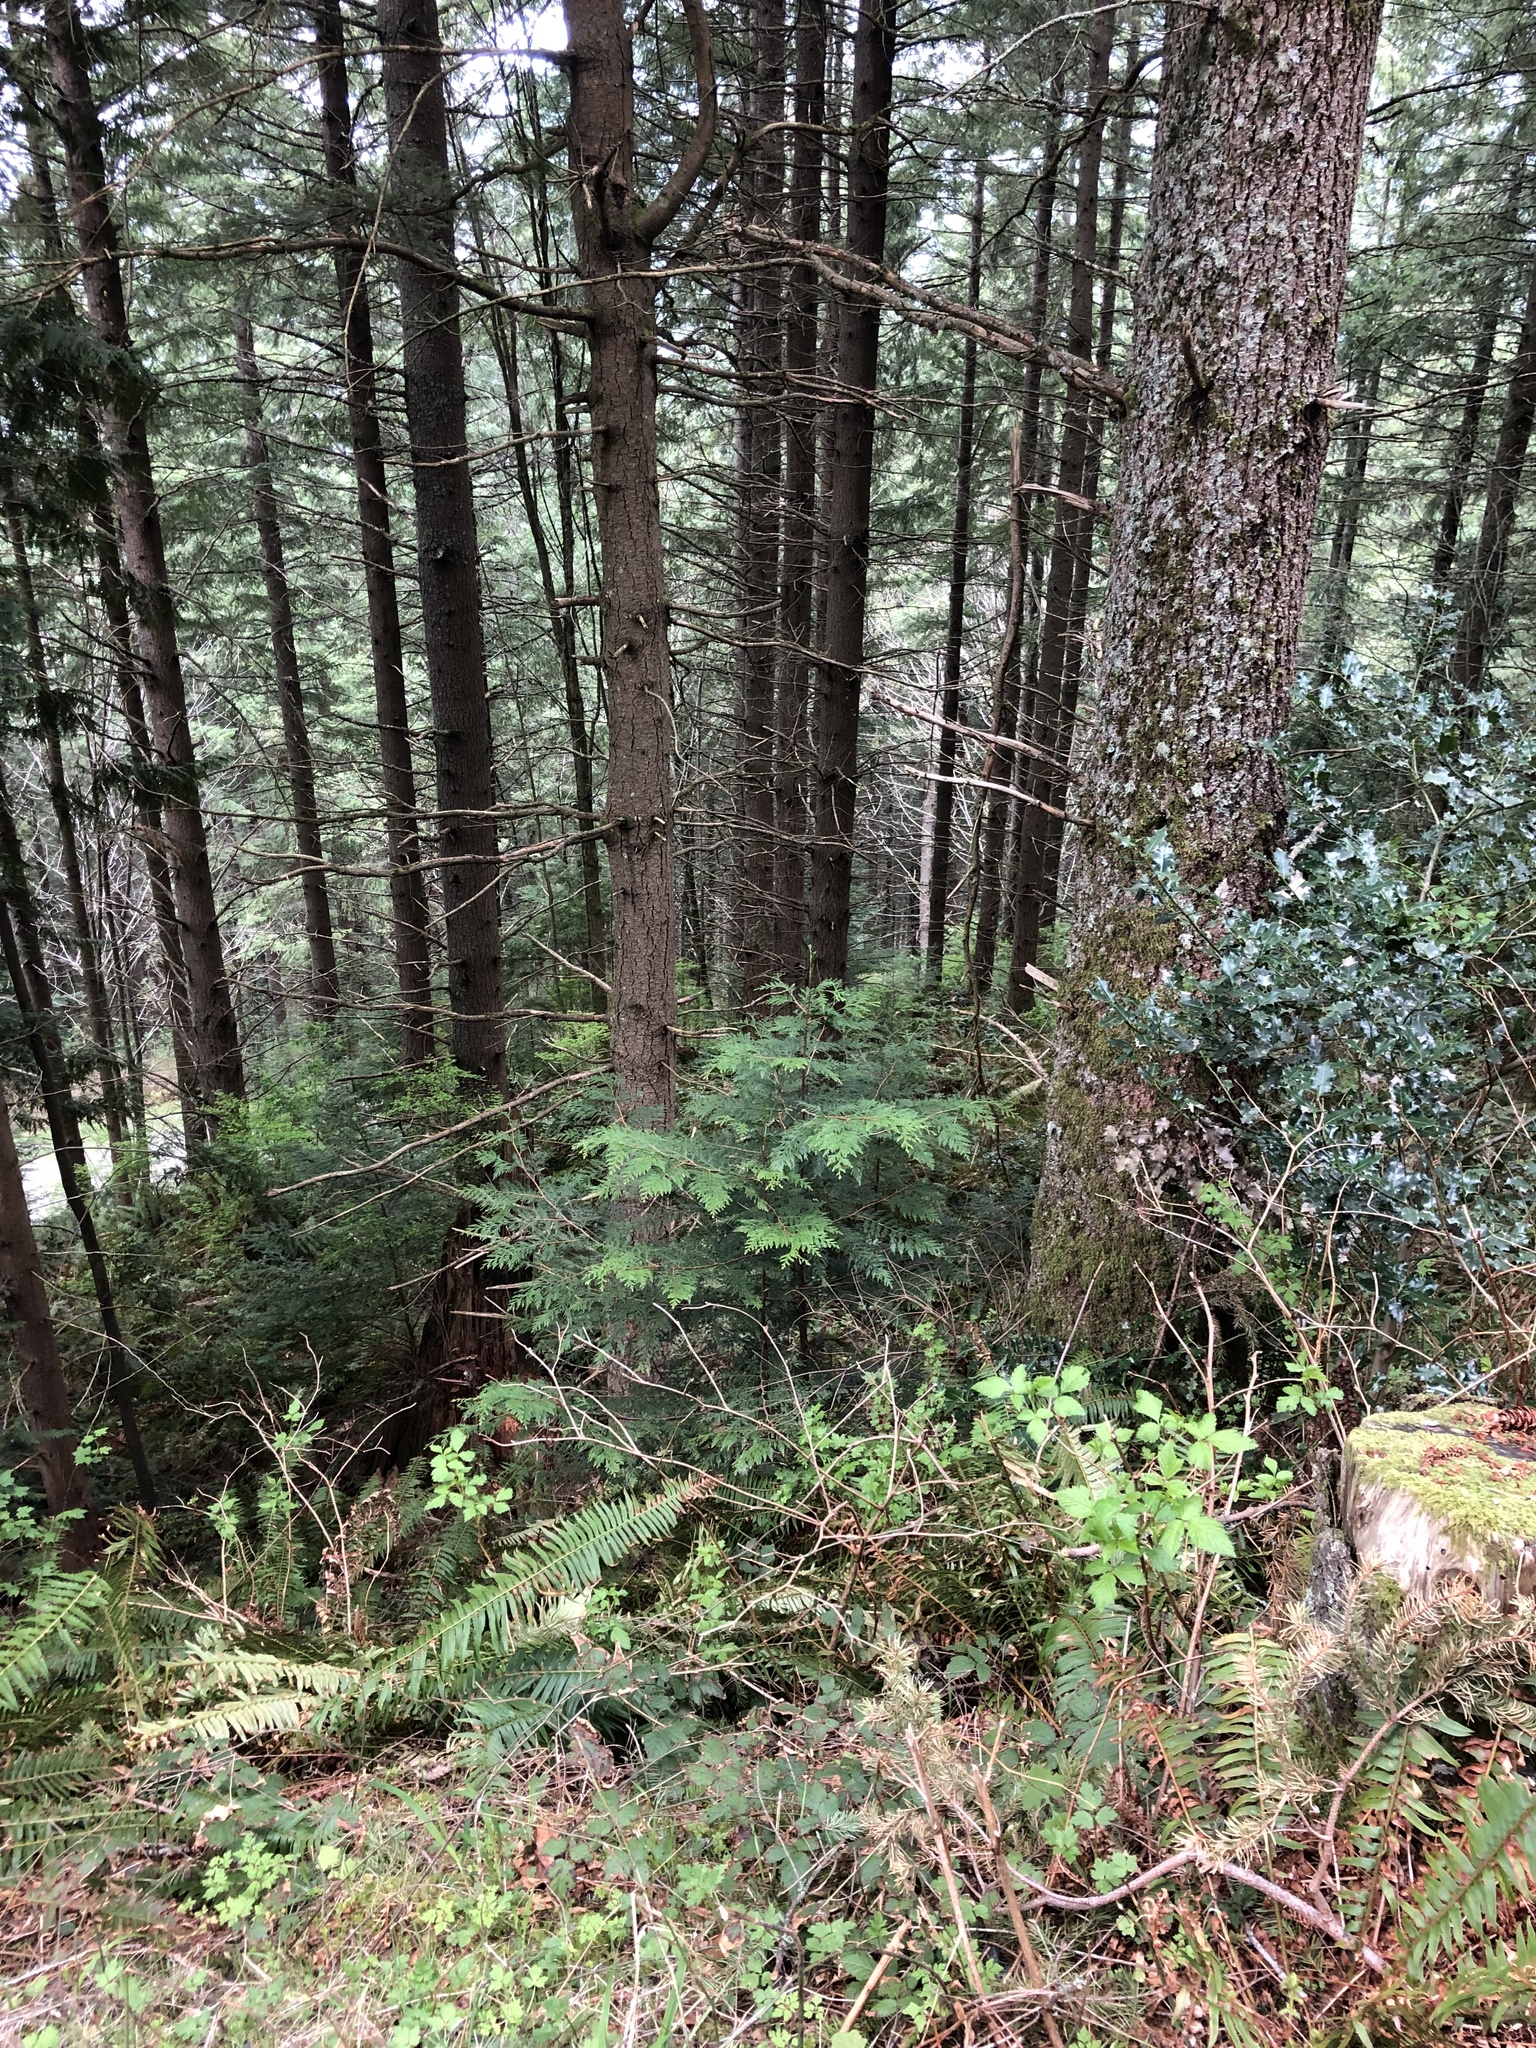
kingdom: Plantae
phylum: Tracheophyta
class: Pinopsida
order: Pinales
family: Cupressaceae
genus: Thuja
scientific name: Thuja plicata
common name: Western red-cedar
